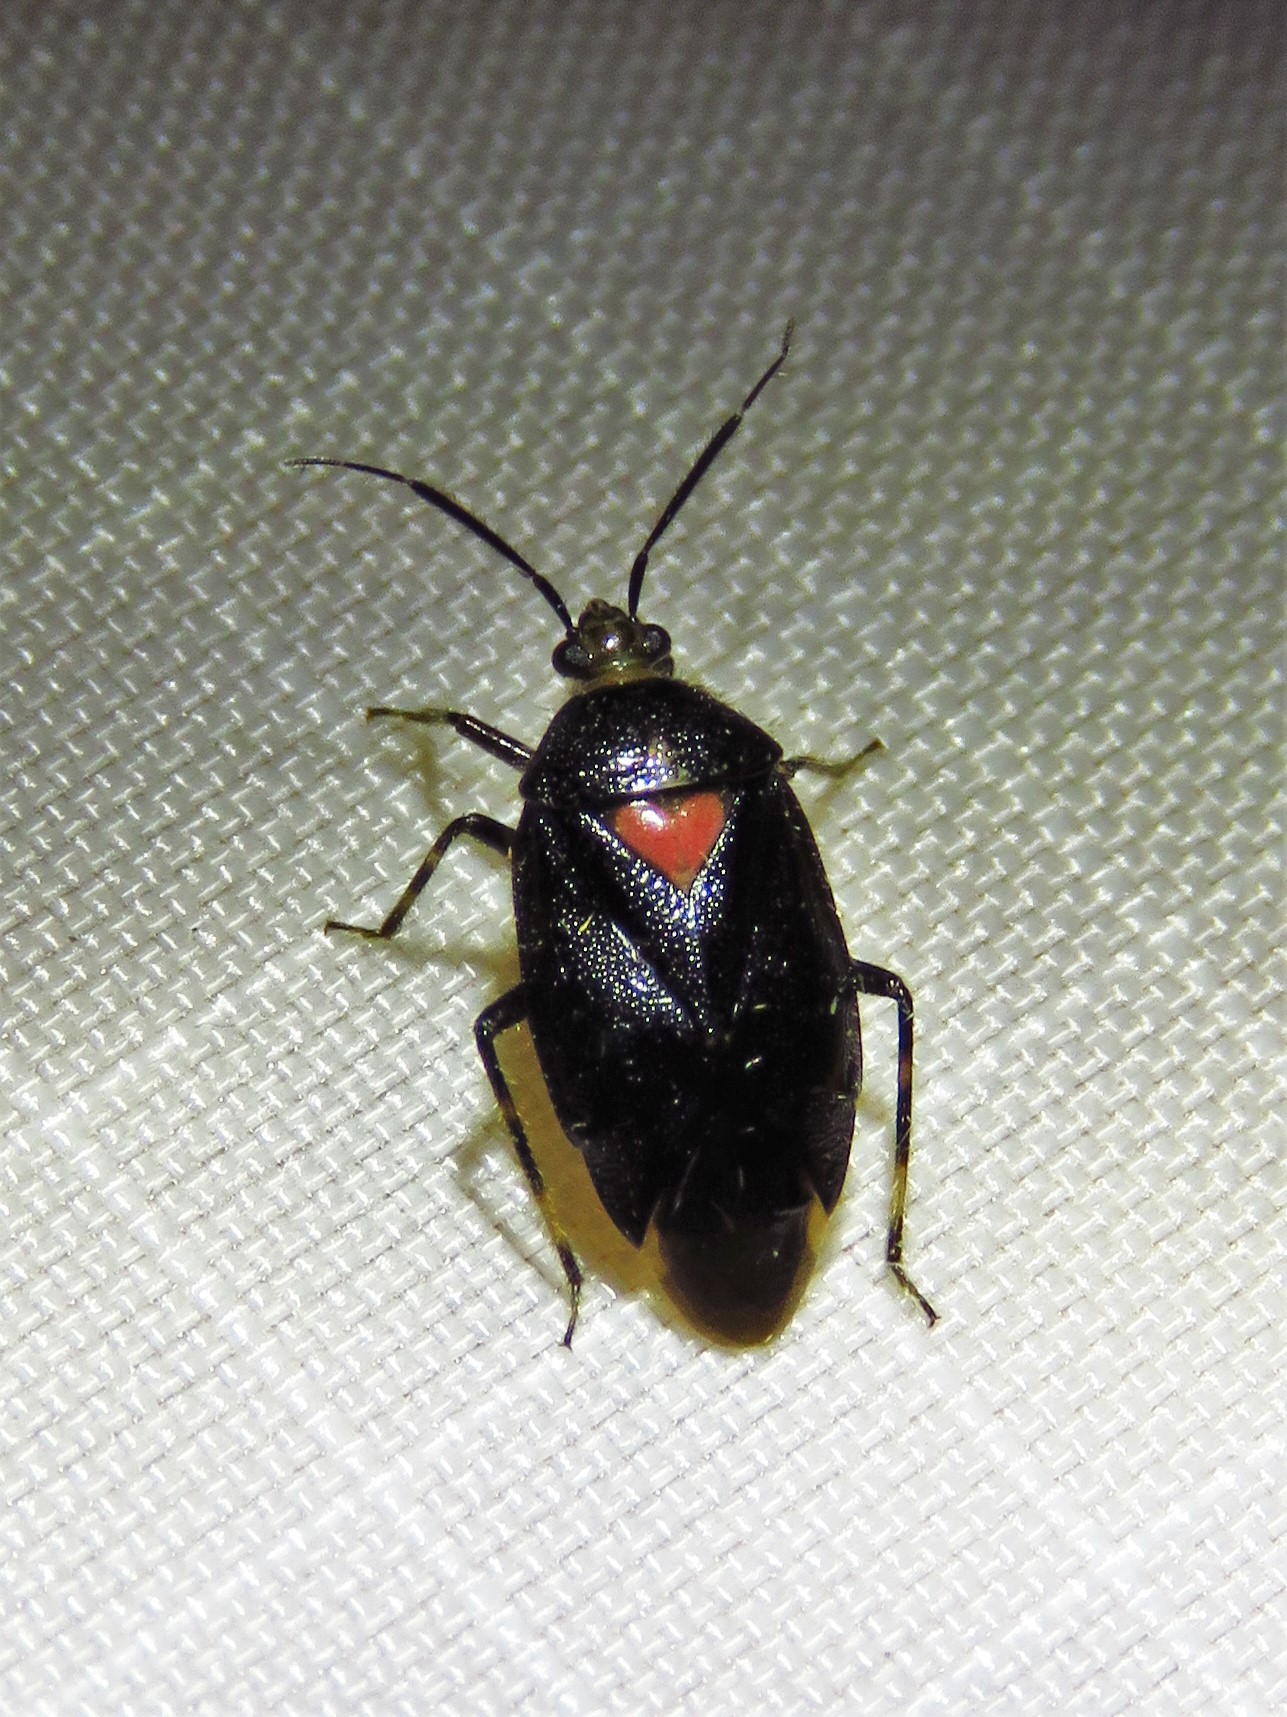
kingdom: Animalia
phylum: Arthropoda
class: Insecta
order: Hemiptera
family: Miridae
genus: Deraeocoris
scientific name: Deraeocoris sayi
